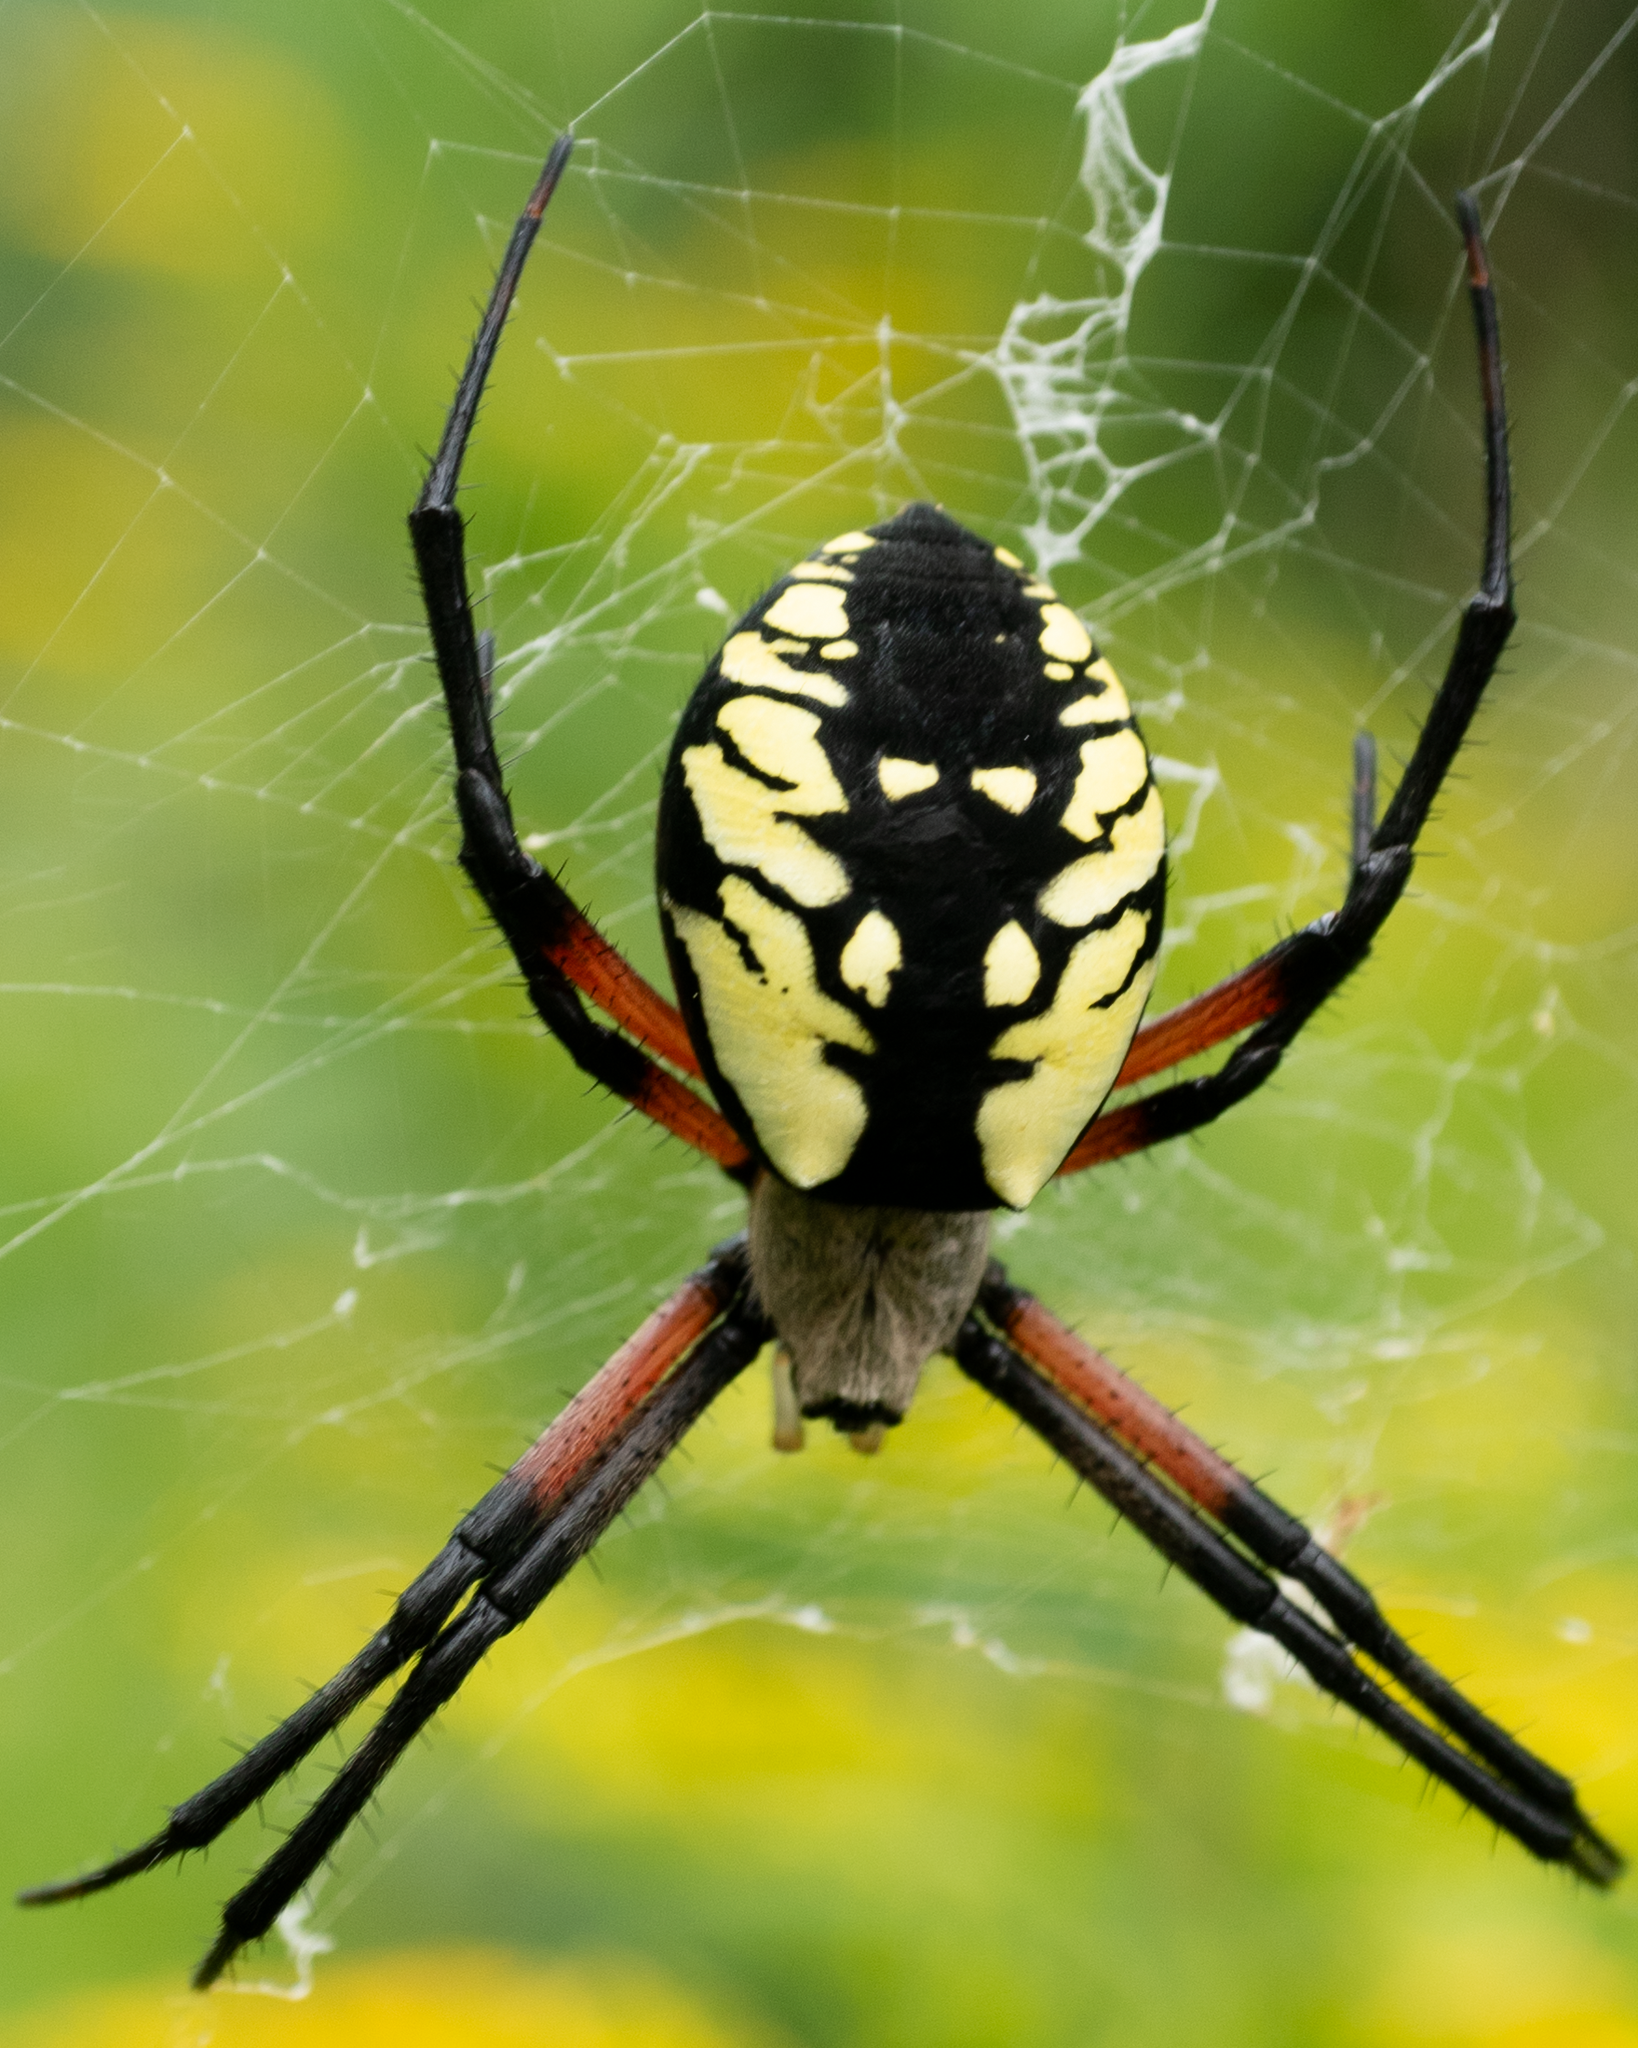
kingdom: Animalia
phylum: Arthropoda
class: Arachnida
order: Araneae
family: Araneidae
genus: Argiope
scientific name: Argiope aurantia
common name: Orb weavers
